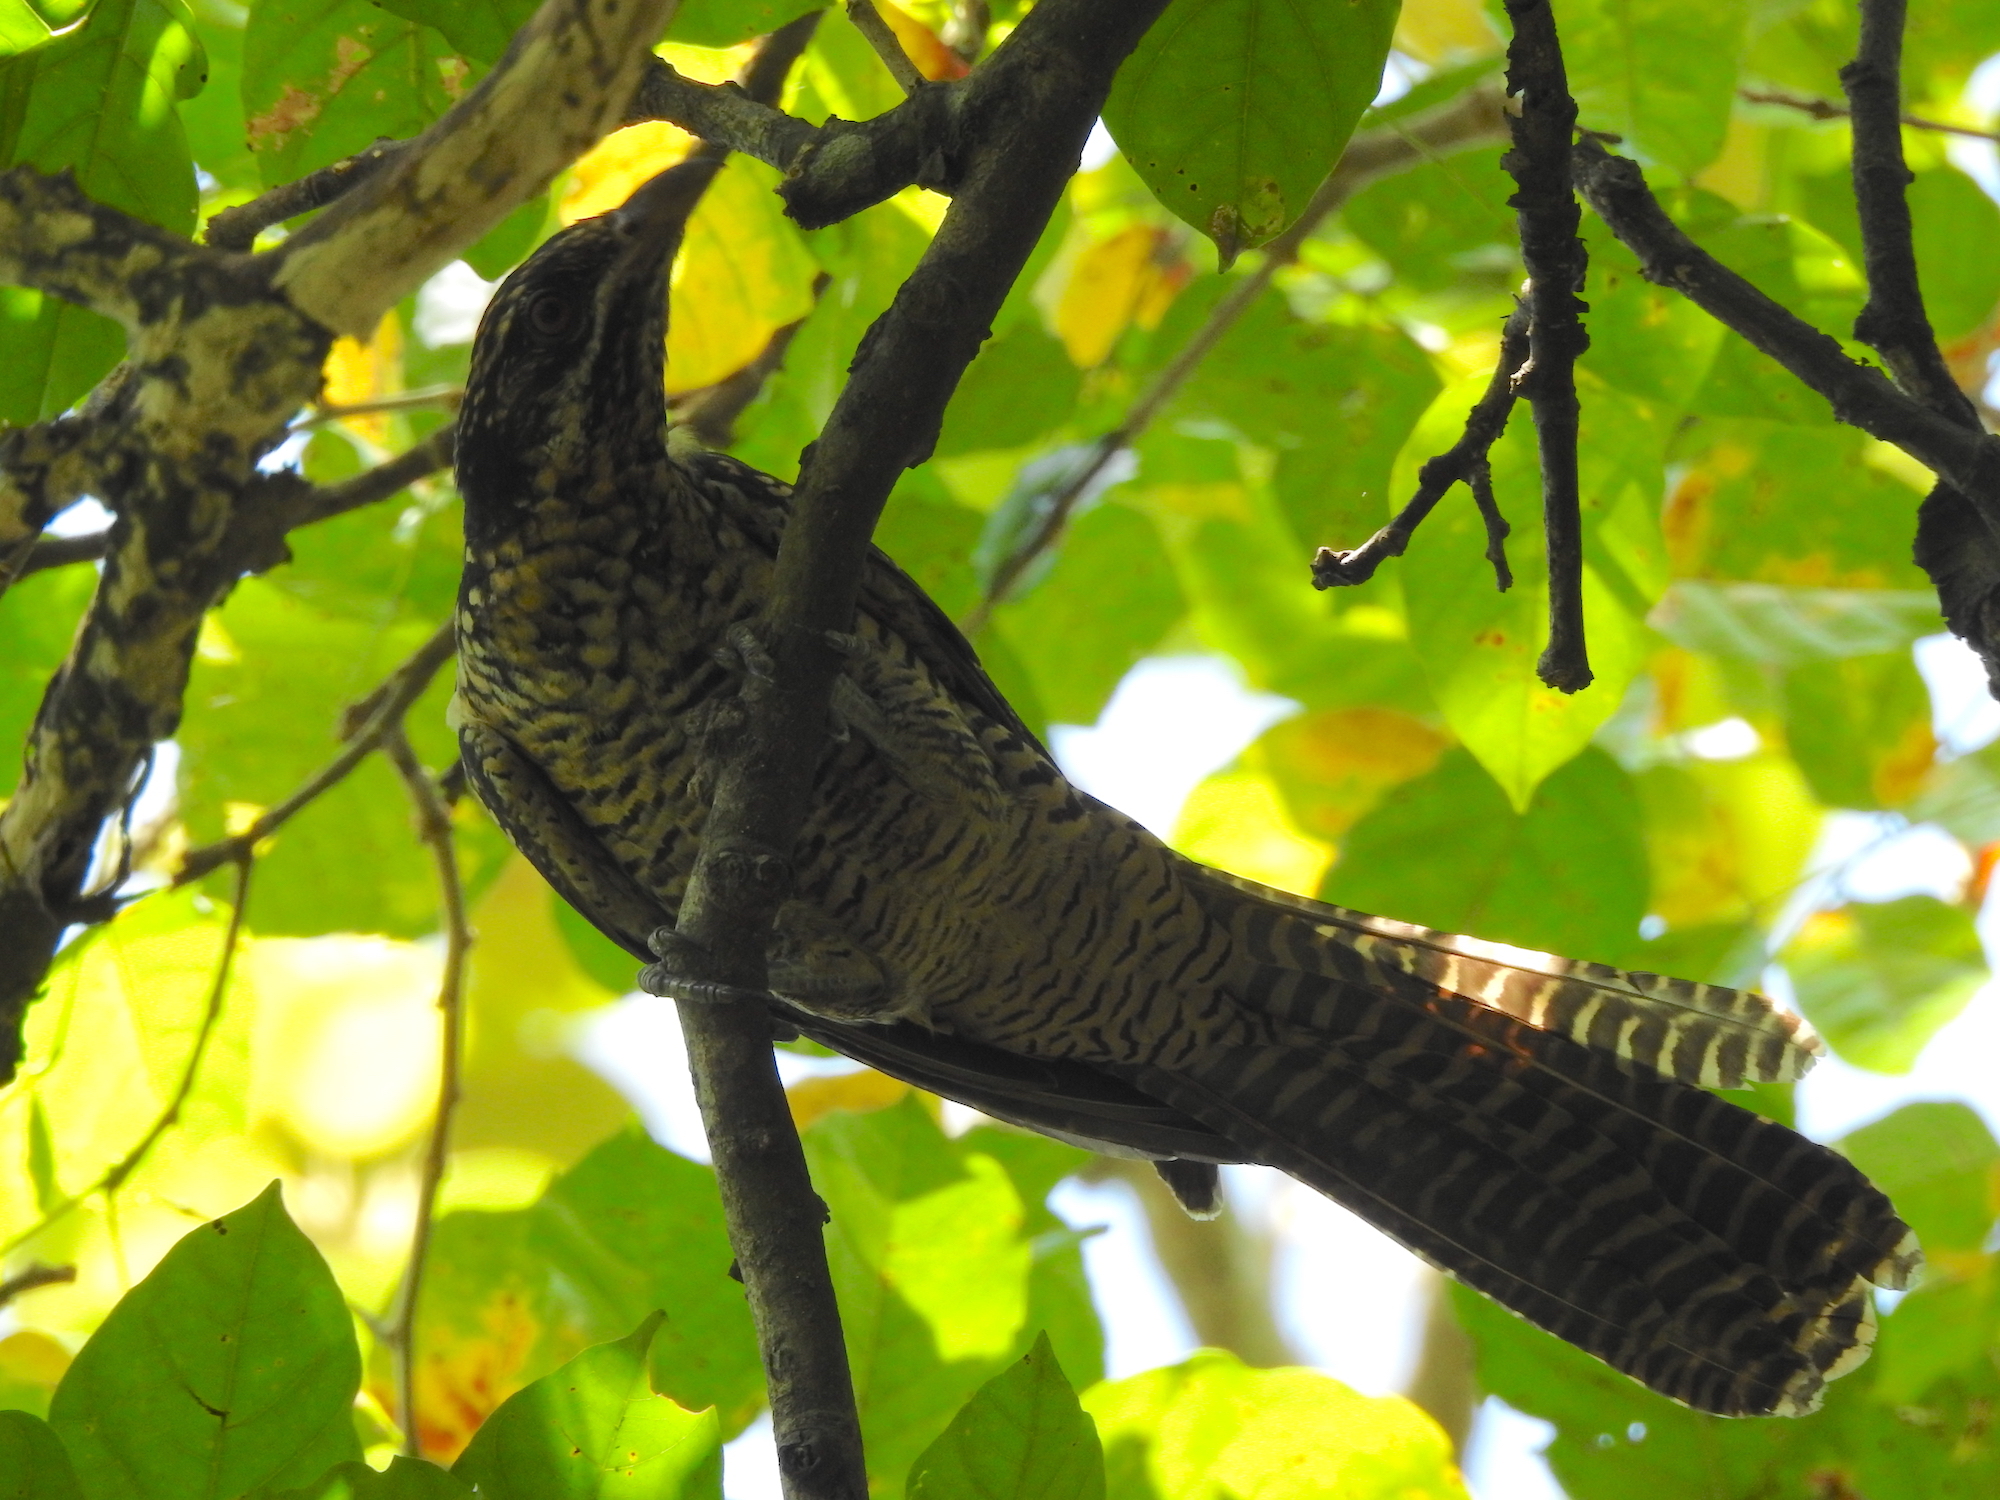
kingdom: Animalia
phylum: Chordata
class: Aves
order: Cuculiformes
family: Cuculidae
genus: Eudynamys
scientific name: Eudynamys scolopaceus
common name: Asian koel
